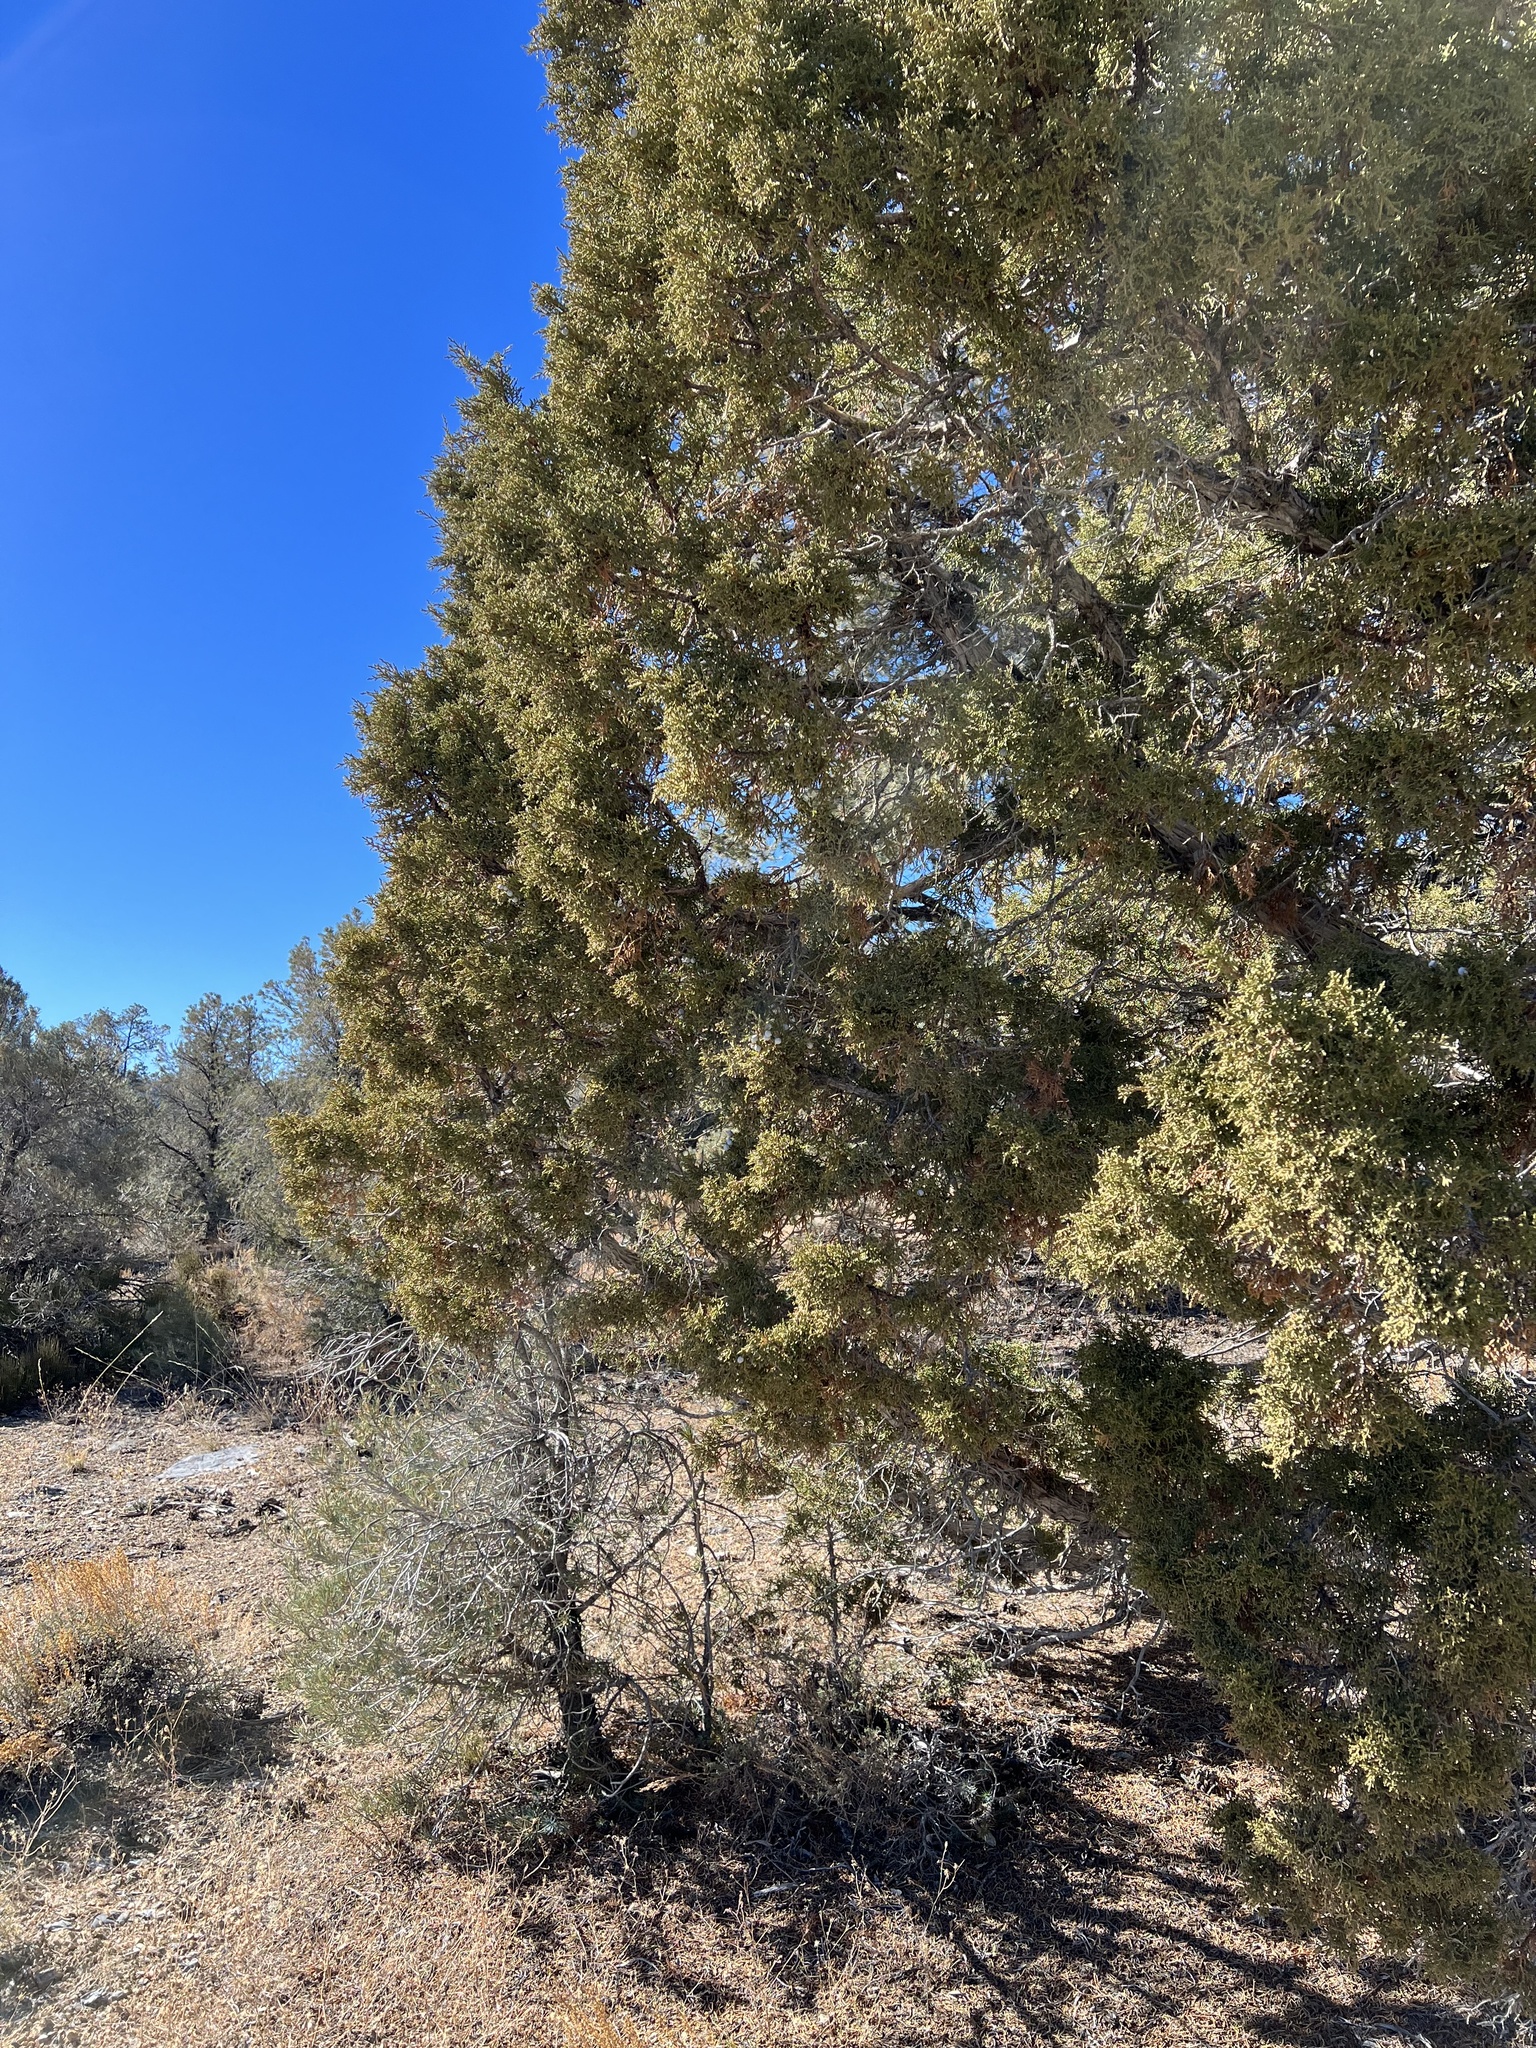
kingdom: Plantae
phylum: Tracheophyta
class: Pinopsida
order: Pinales
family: Cupressaceae
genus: Juniperus
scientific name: Juniperus osteosperma
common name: Utah juniper
